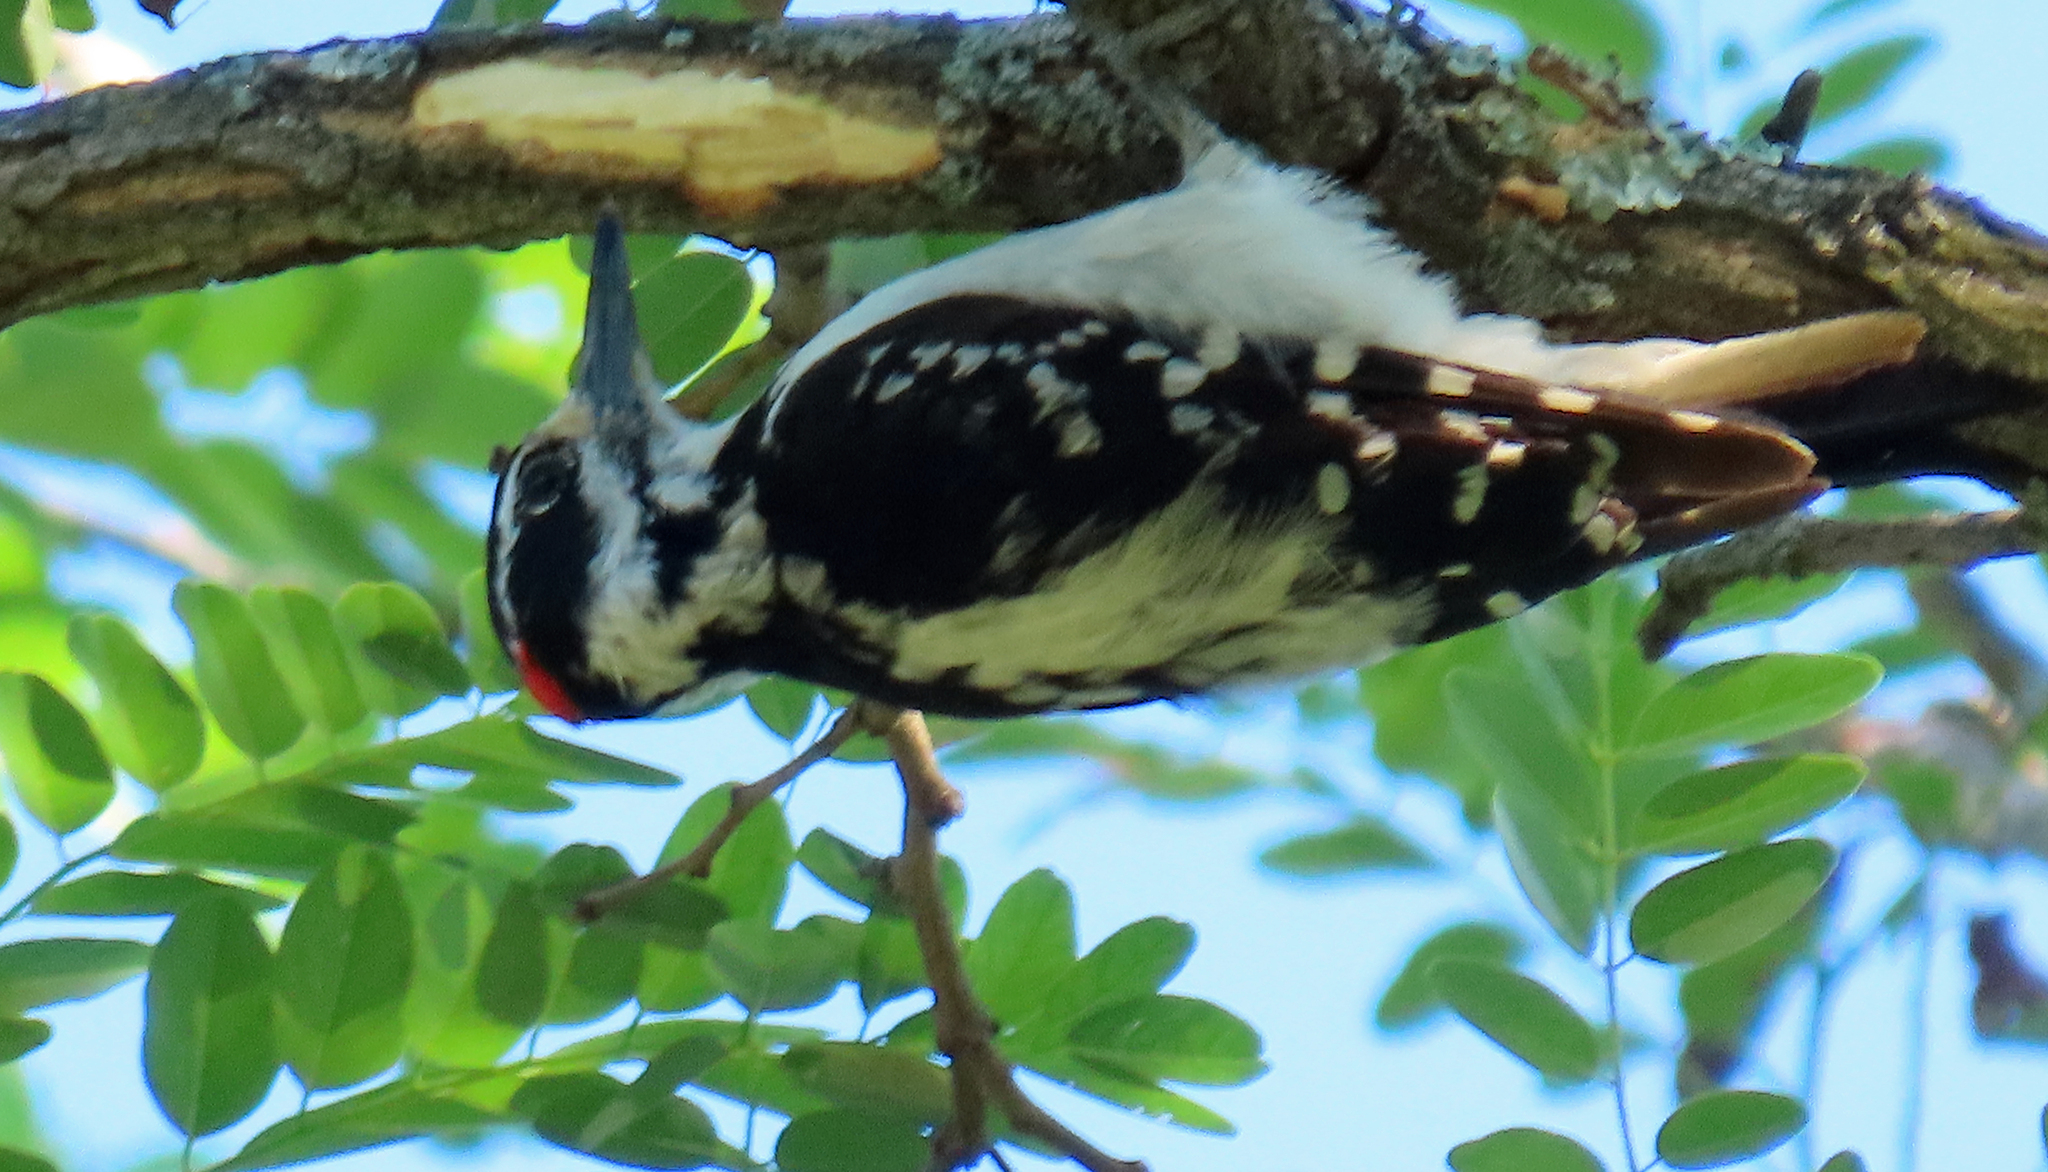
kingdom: Animalia
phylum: Chordata
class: Aves
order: Piciformes
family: Picidae
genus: Leuconotopicus
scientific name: Leuconotopicus villosus
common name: Hairy woodpecker
